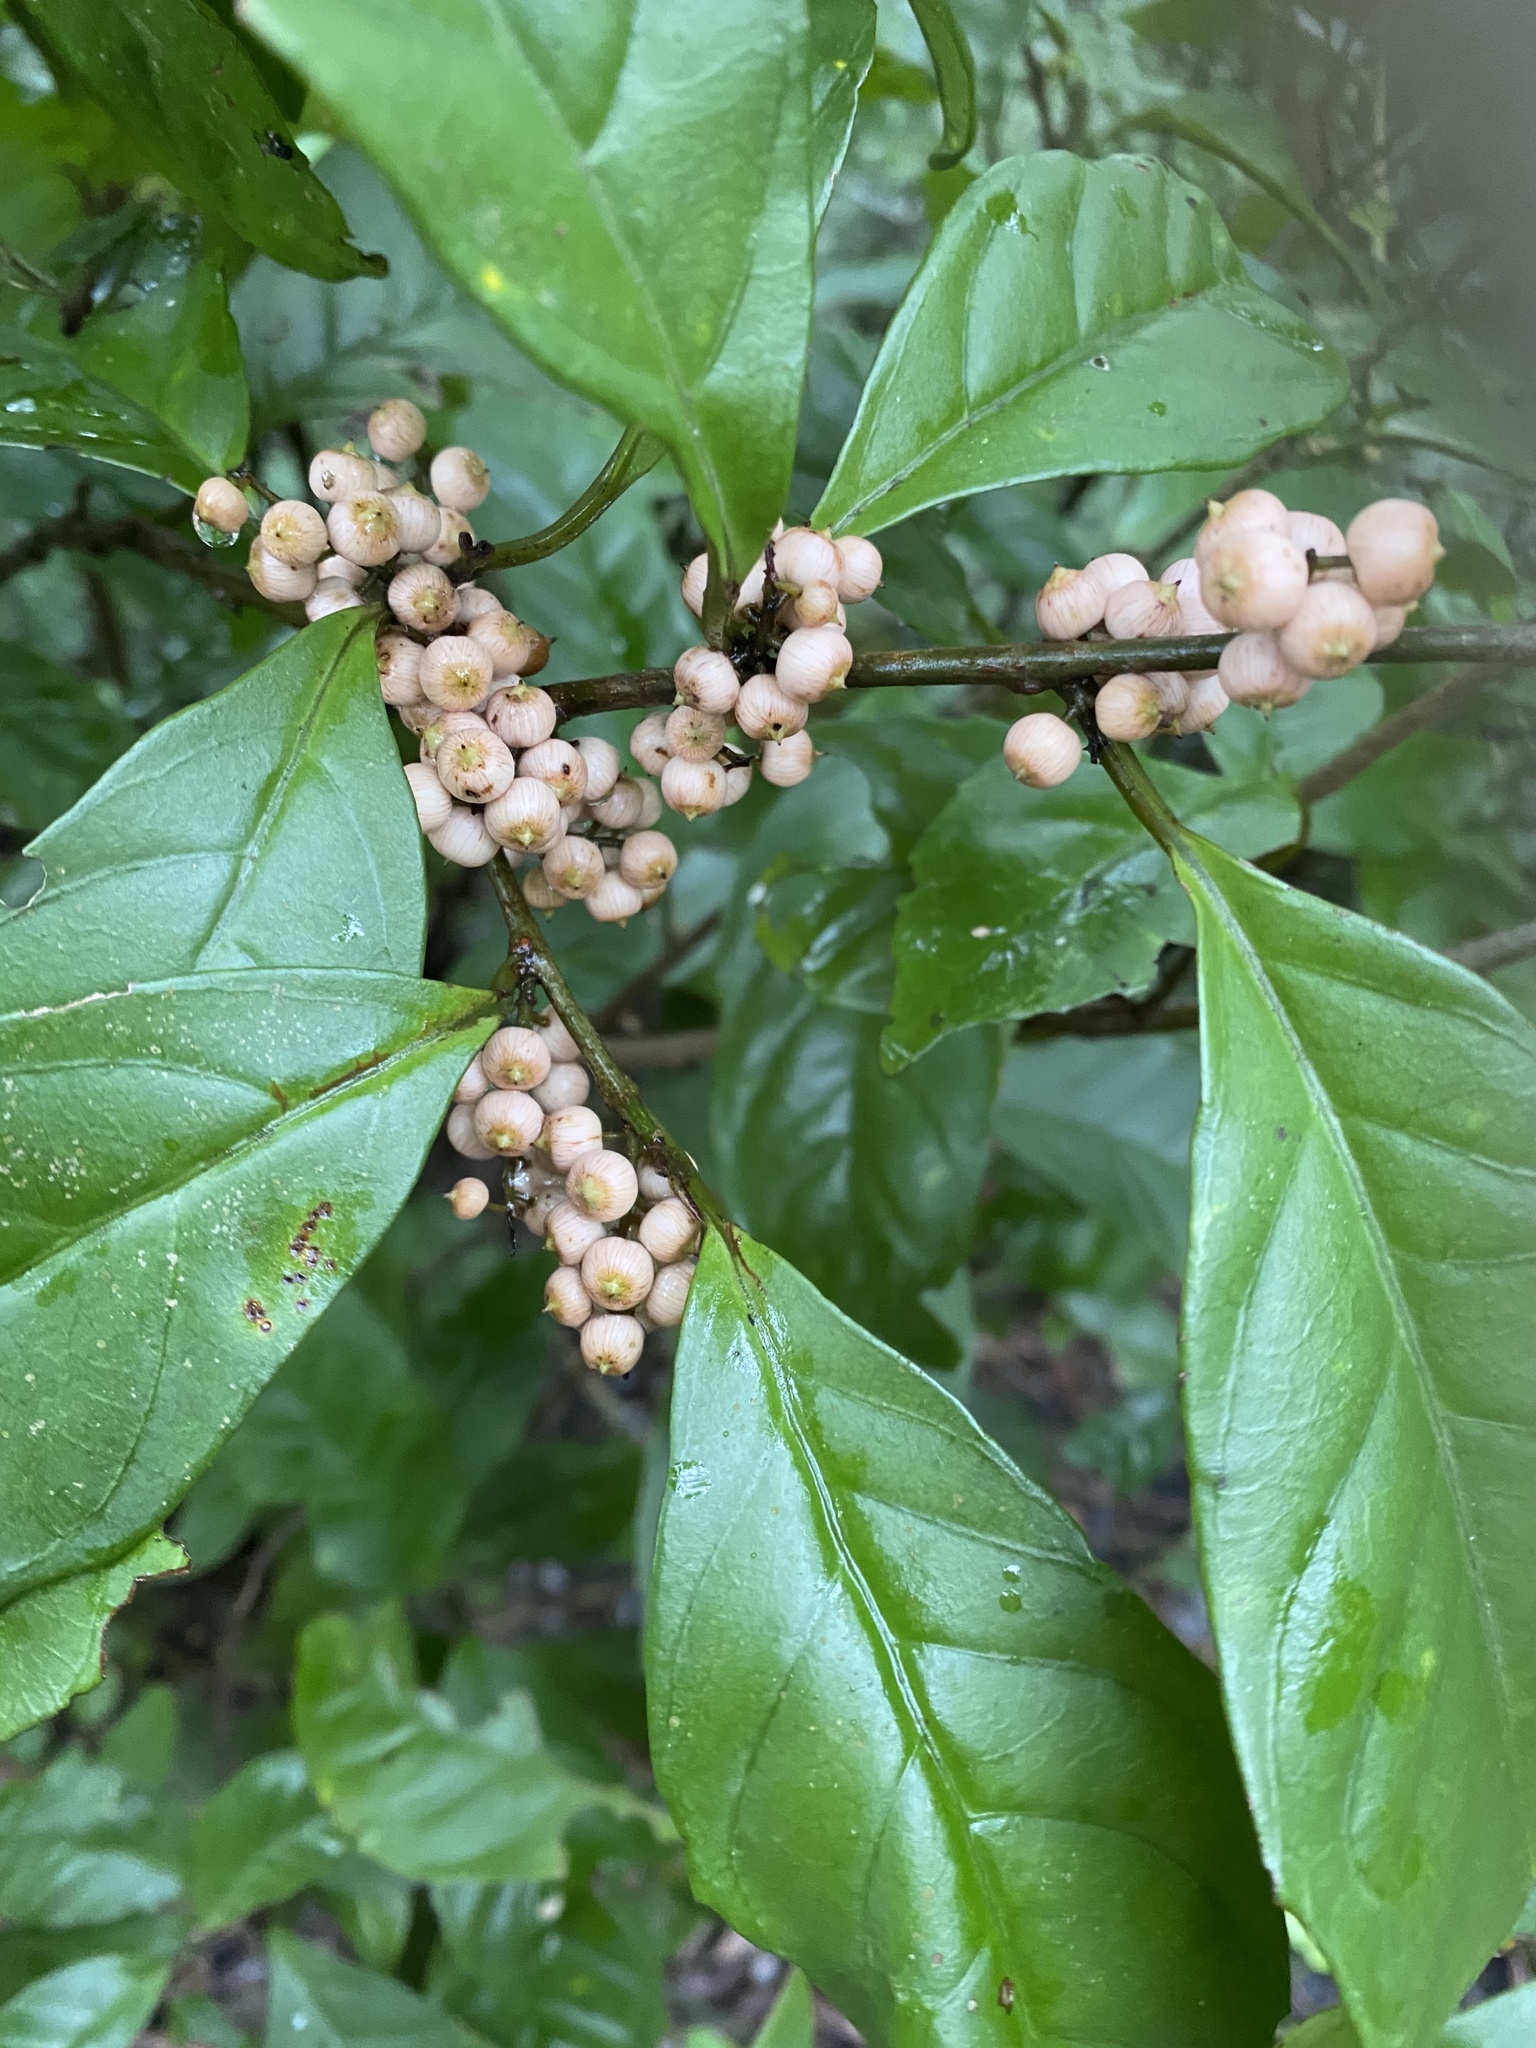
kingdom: Plantae
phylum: Tracheophyta
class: Magnoliopsida
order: Ericales
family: Primulaceae
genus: Maesa
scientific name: Maesa japonica
